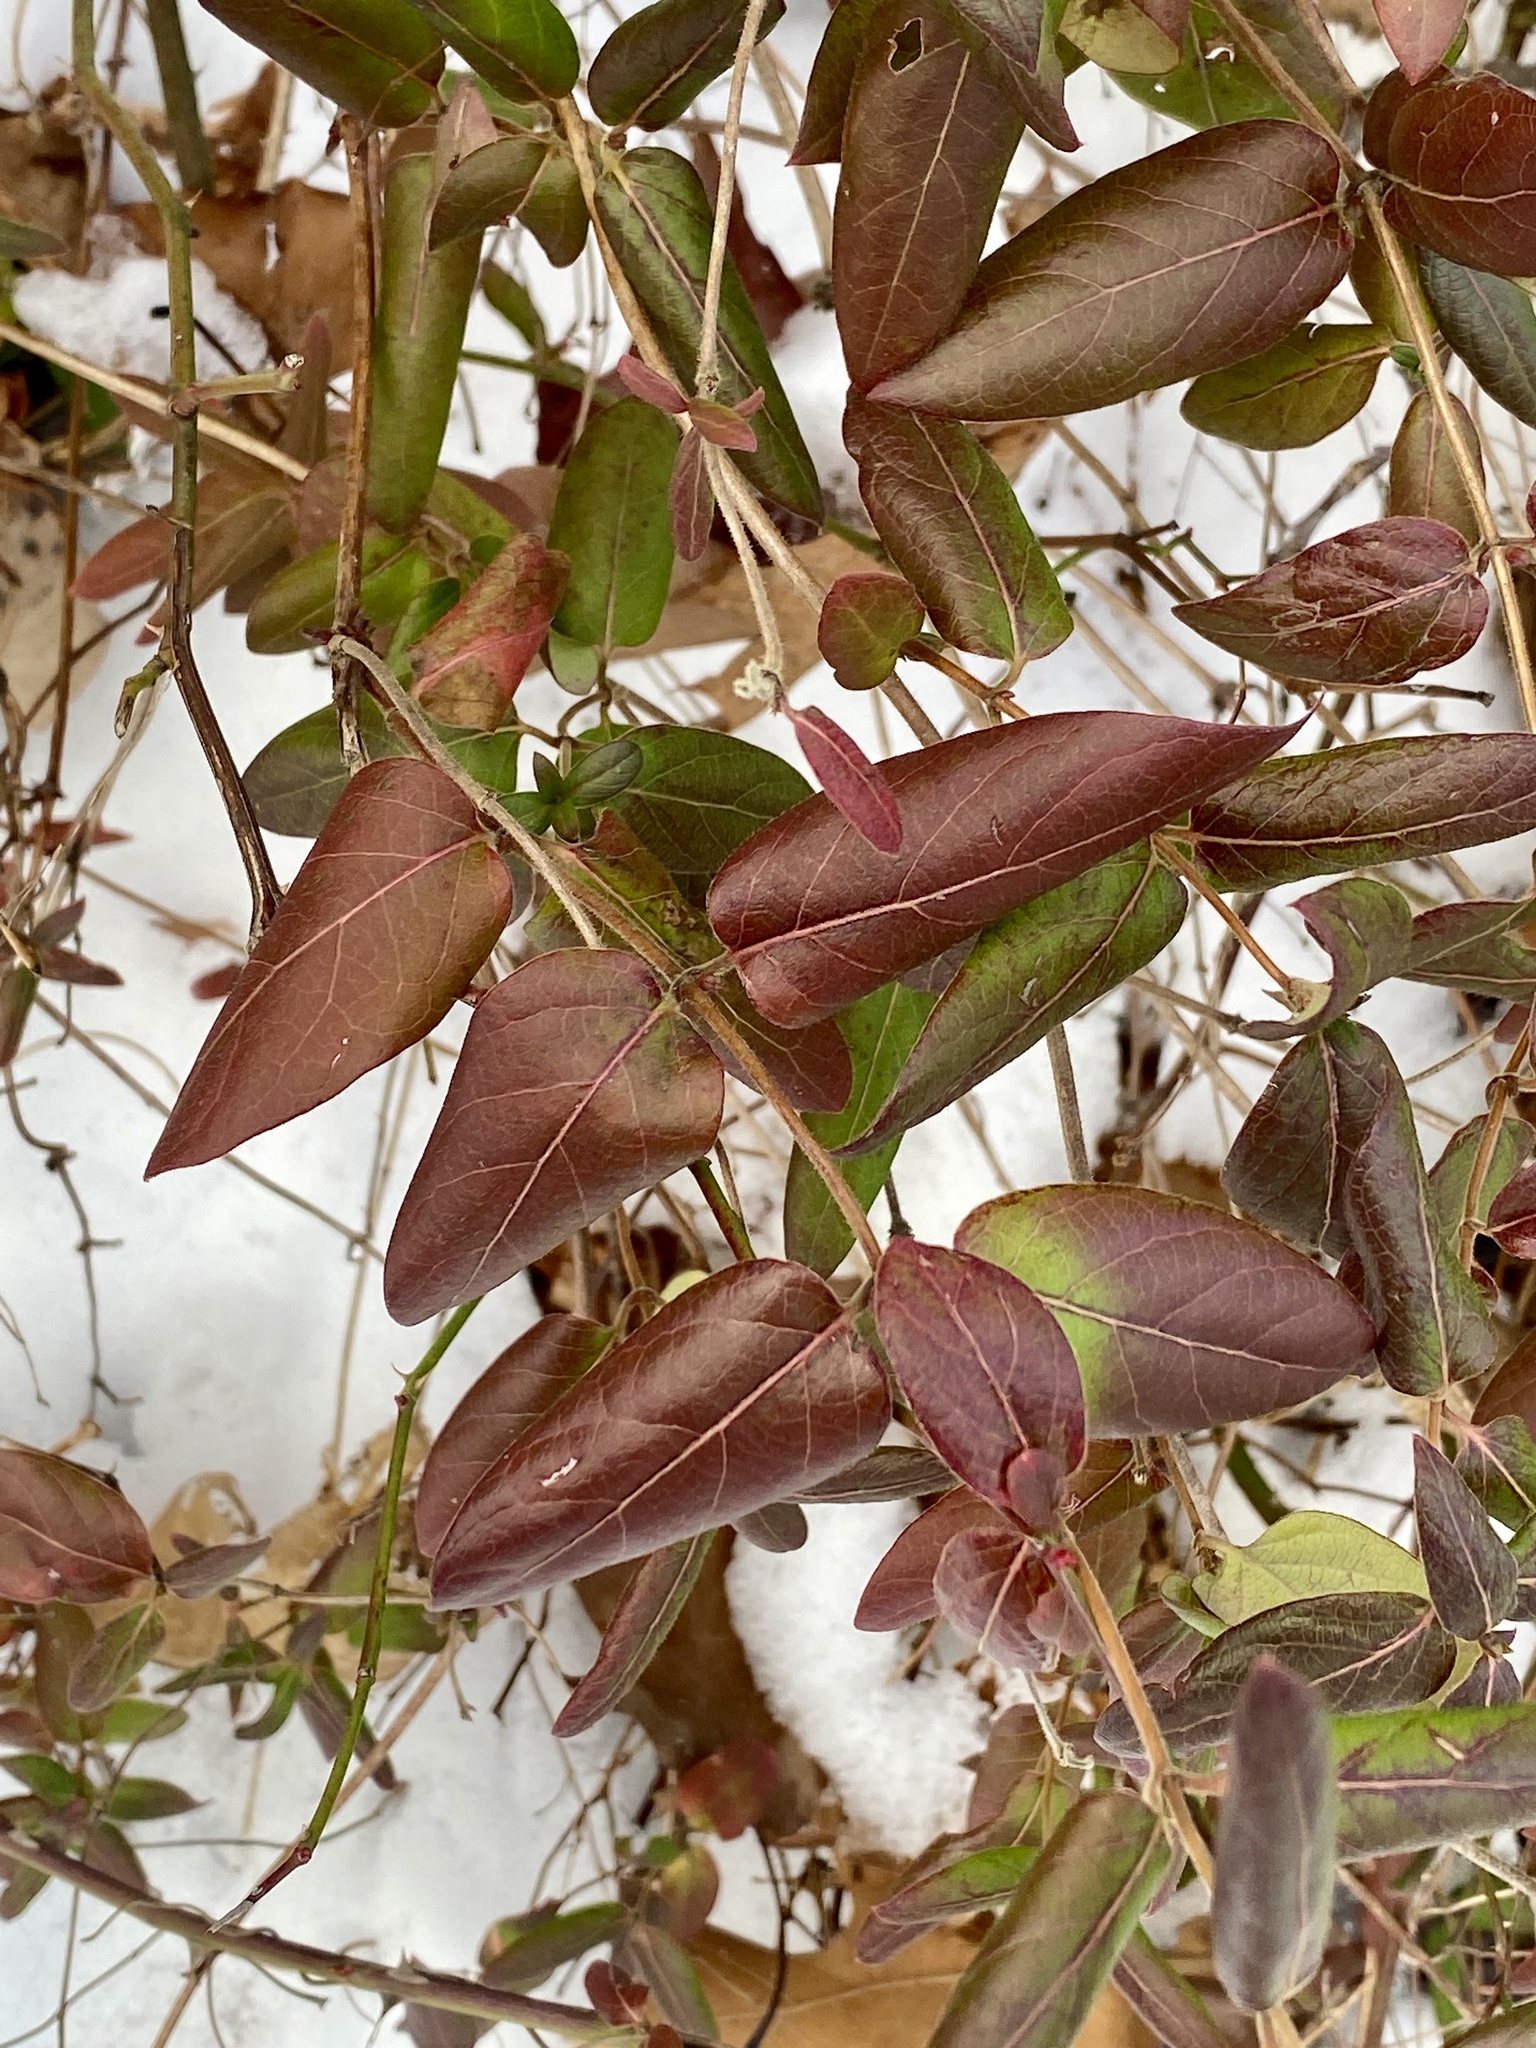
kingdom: Plantae
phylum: Tracheophyta
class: Magnoliopsida
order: Dipsacales
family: Caprifoliaceae
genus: Lonicera
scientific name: Lonicera japonica
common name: Japanese honeysuckle
